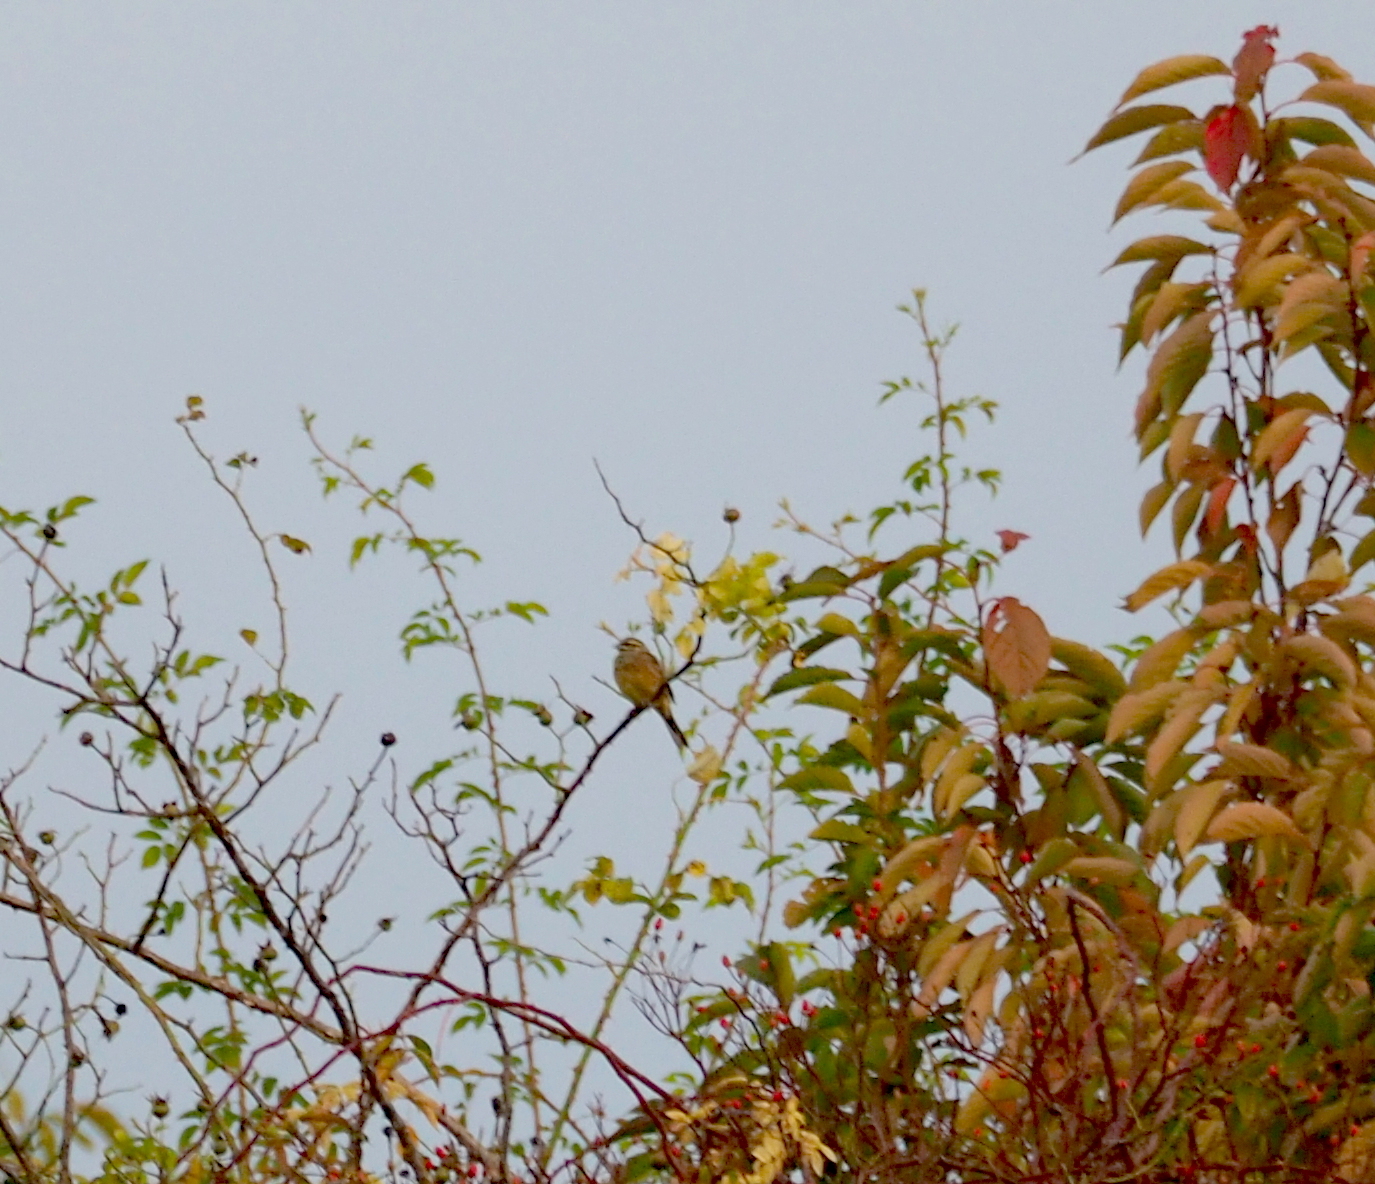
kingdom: Animalia
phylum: Chordata
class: Aves
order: Passeriformes
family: Emberizidae
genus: Emberiza
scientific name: Emberiza cirlus
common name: Cirl bunting
